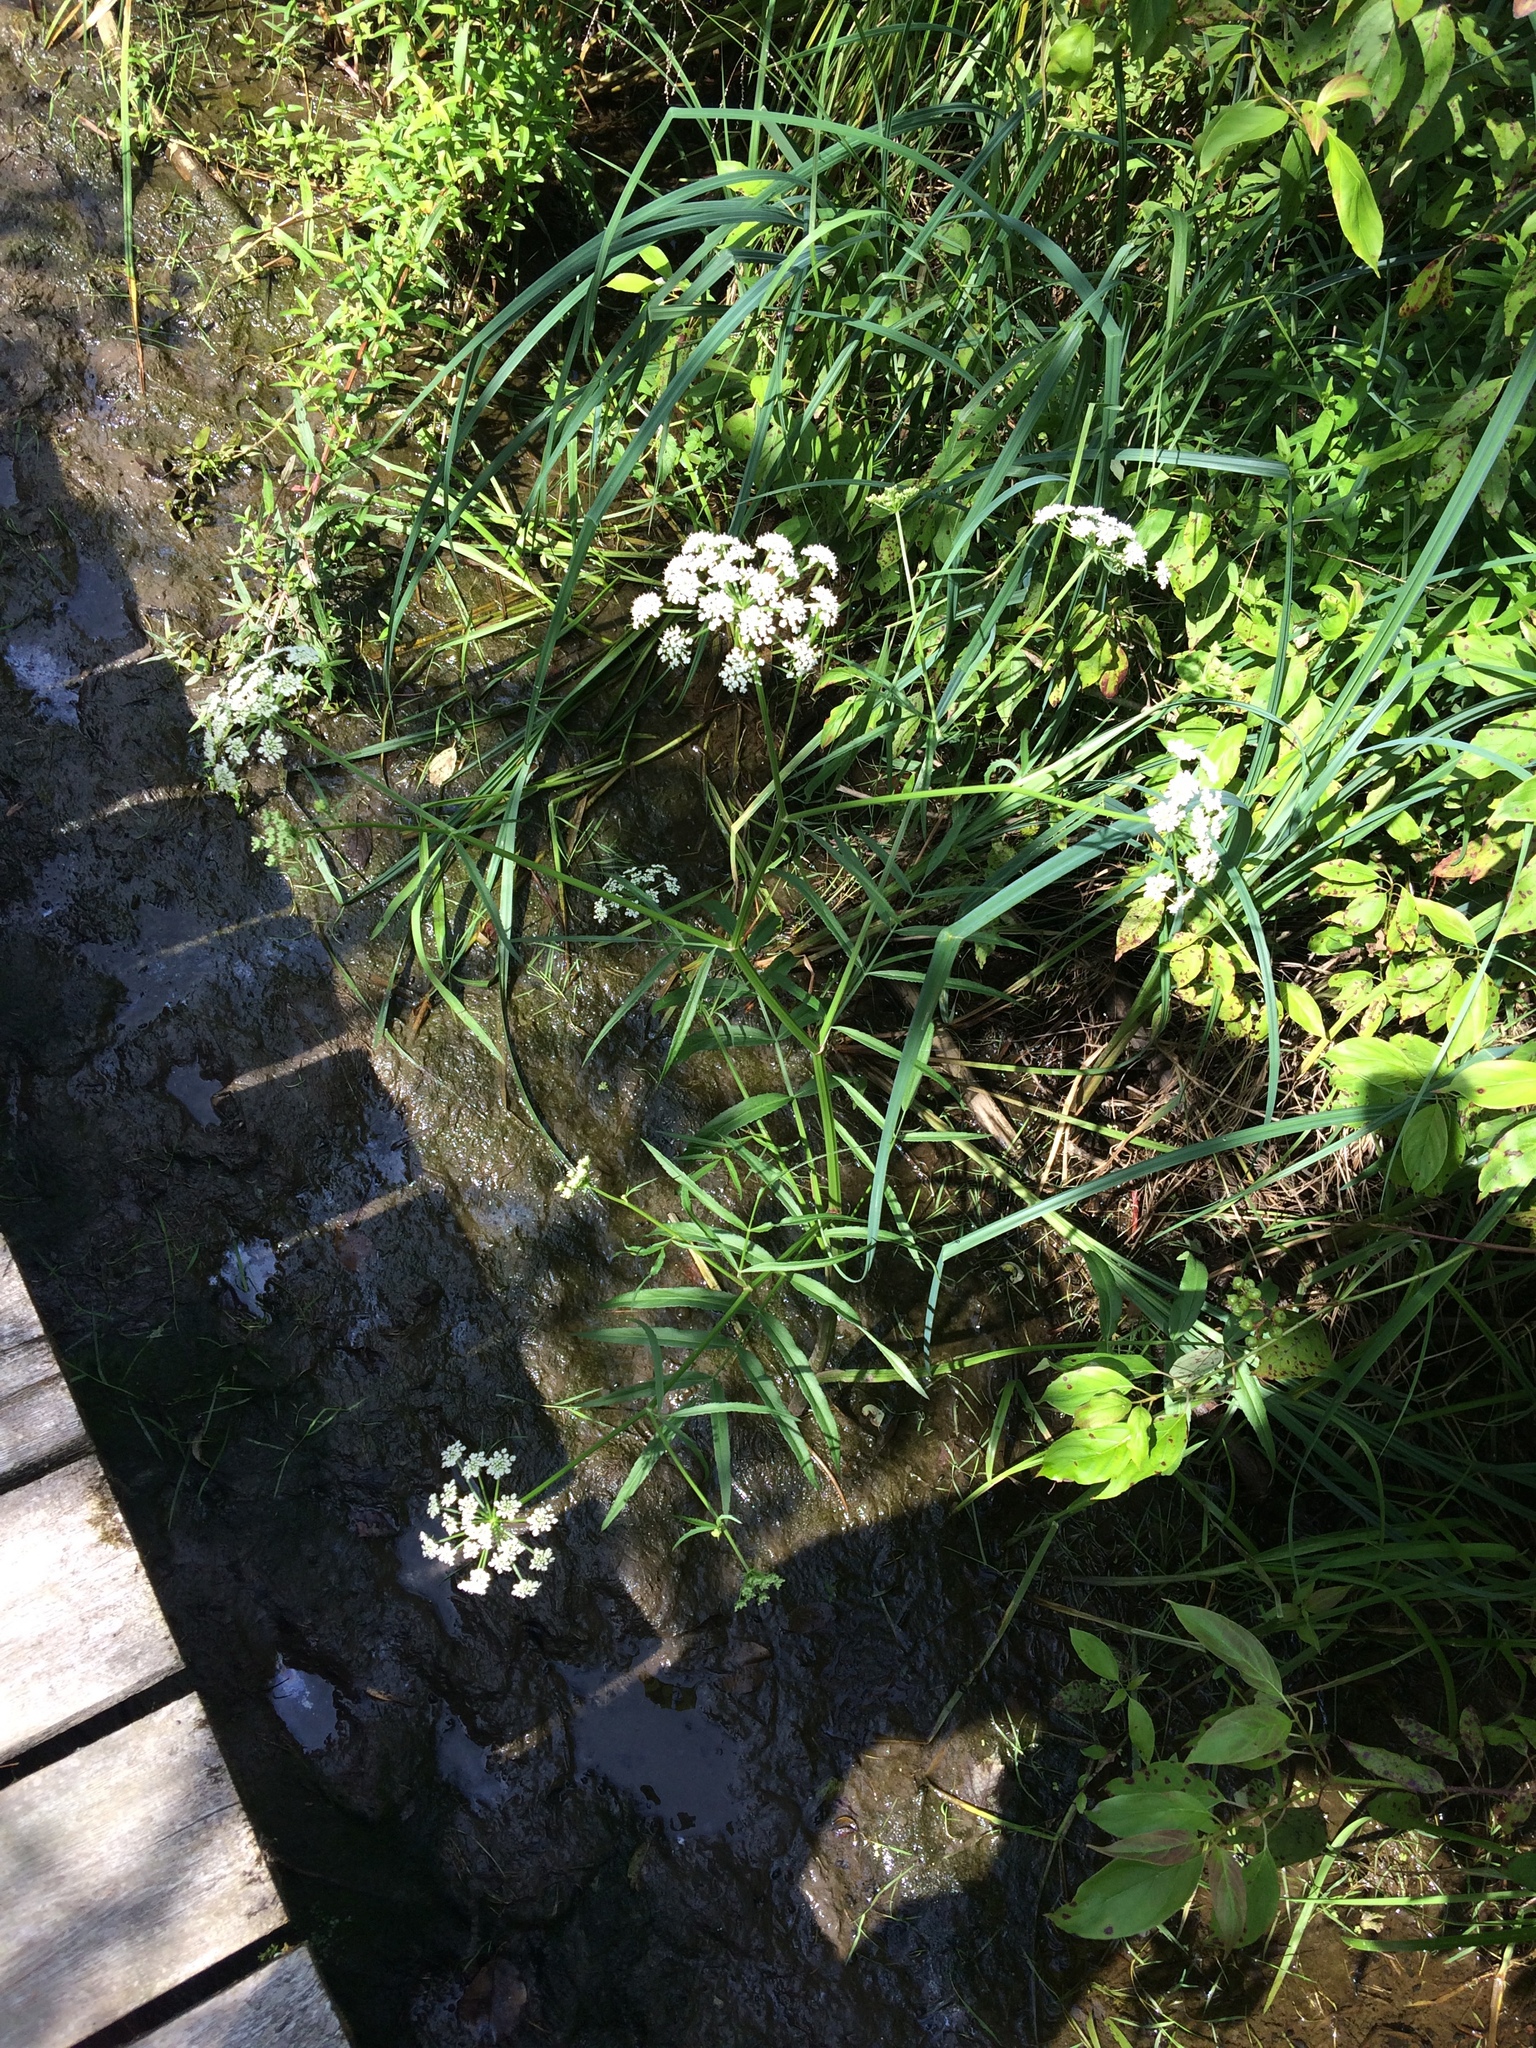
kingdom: Plantae
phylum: Tracheophyta
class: Magnoliopsida
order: Apiales
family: Apiaceae
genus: Sium
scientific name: Sium suave
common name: Hemlock water-parsnip
